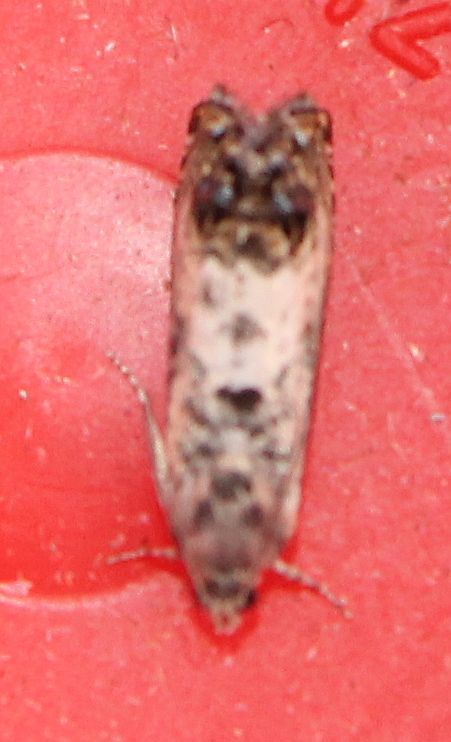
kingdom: Animalia
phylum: Arthropoda
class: Insecta
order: Lepidoptera
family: Tortricidae
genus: Pammene
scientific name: Pammene fasciana
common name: Acorn piercer
